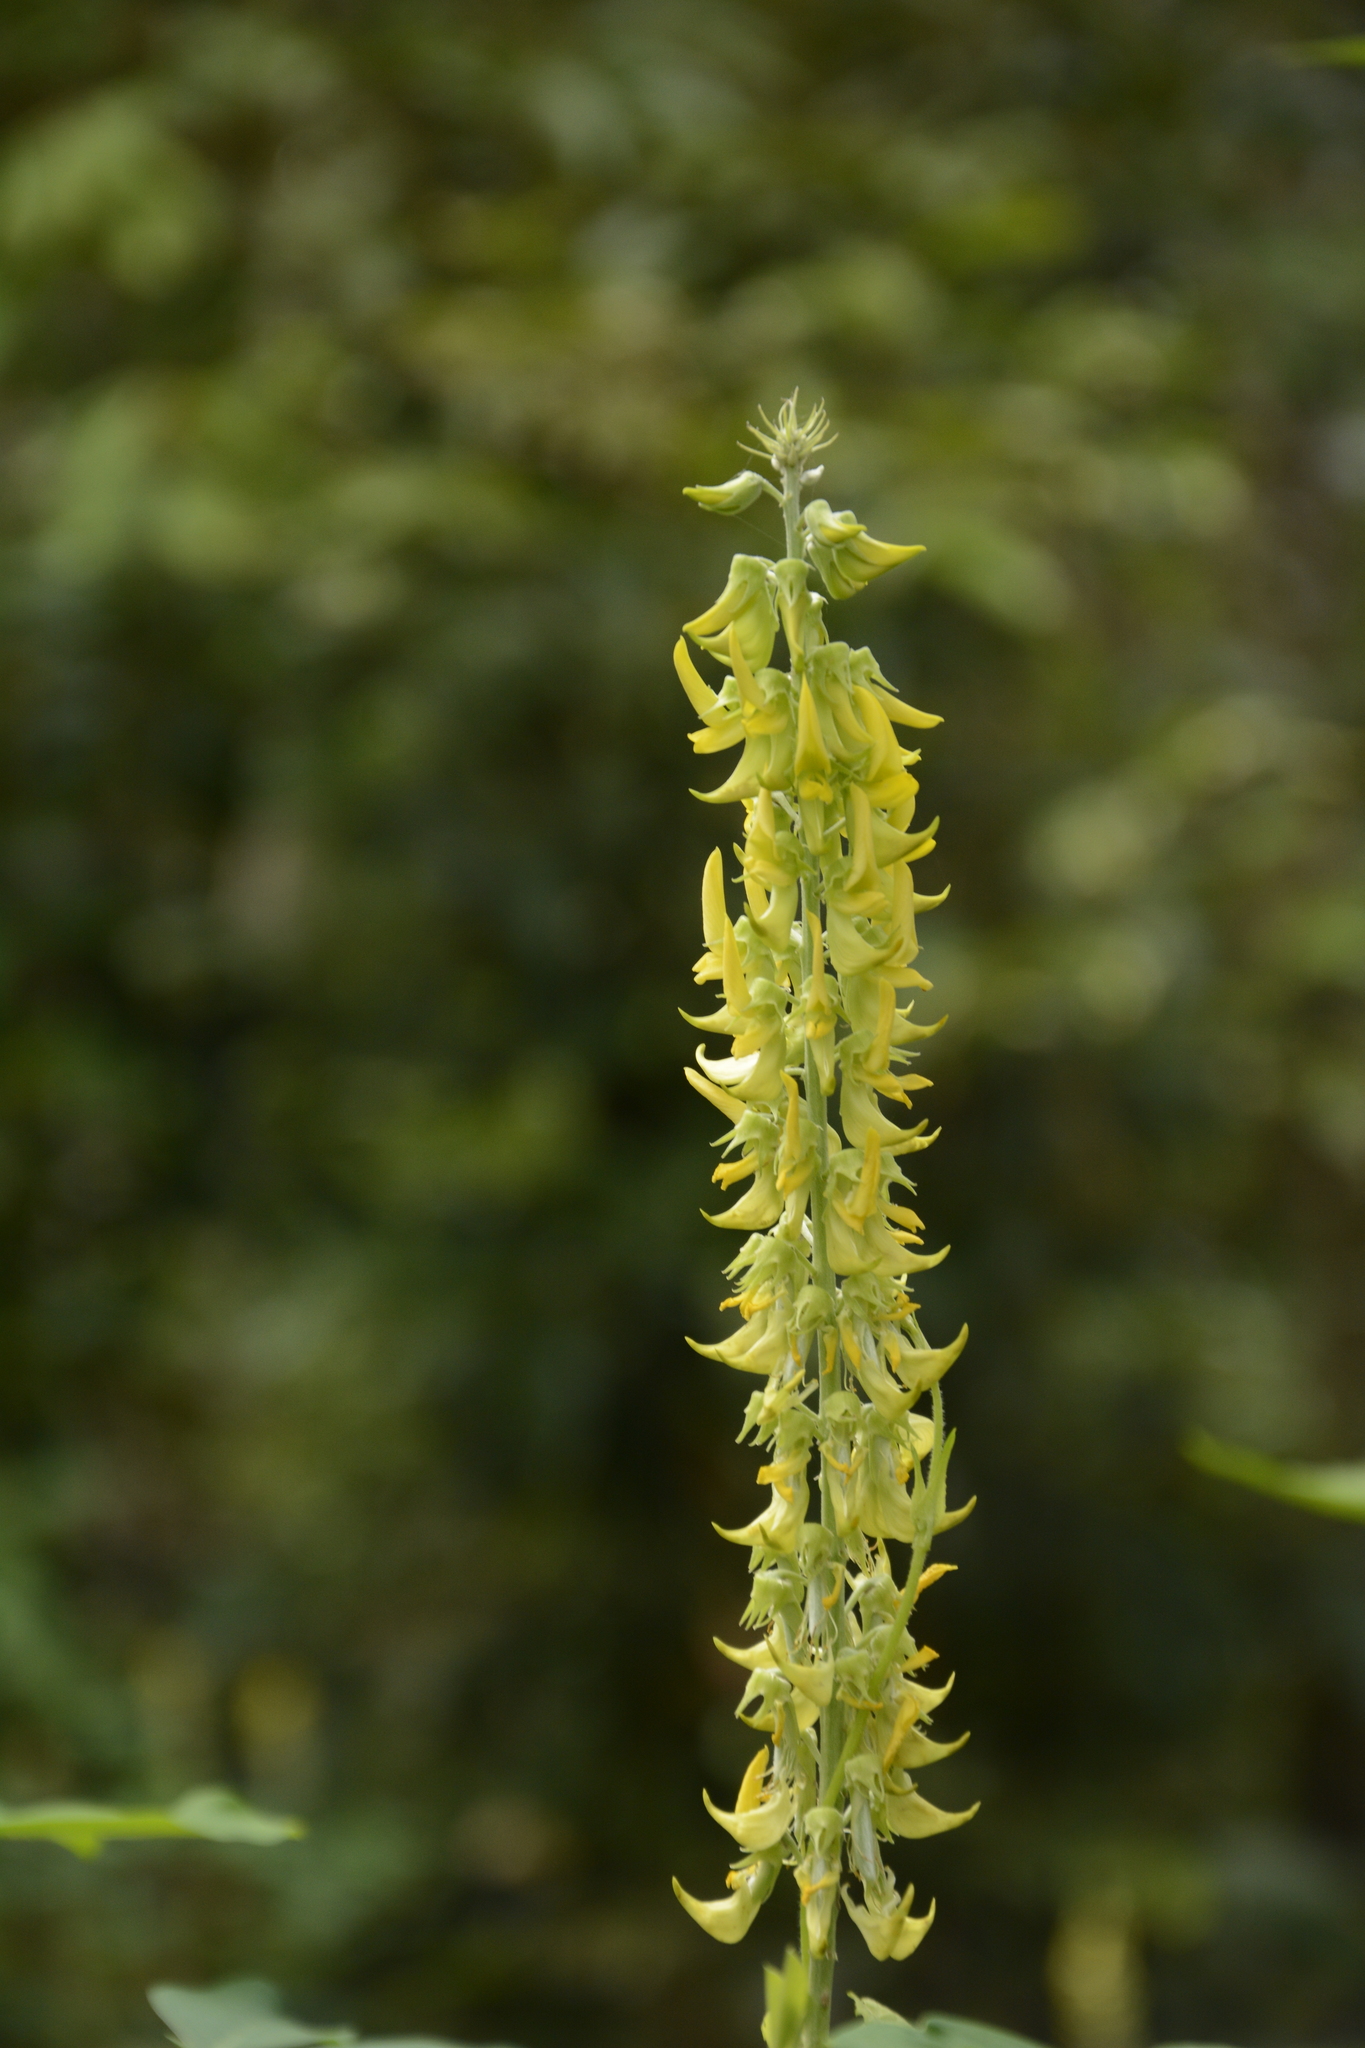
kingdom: Plantae
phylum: Tracheophyta
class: Magnoliopsida
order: Fabales
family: Fabaceae
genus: Crotalaria
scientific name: Crotalaria pallida
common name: Smooth rattlebox
